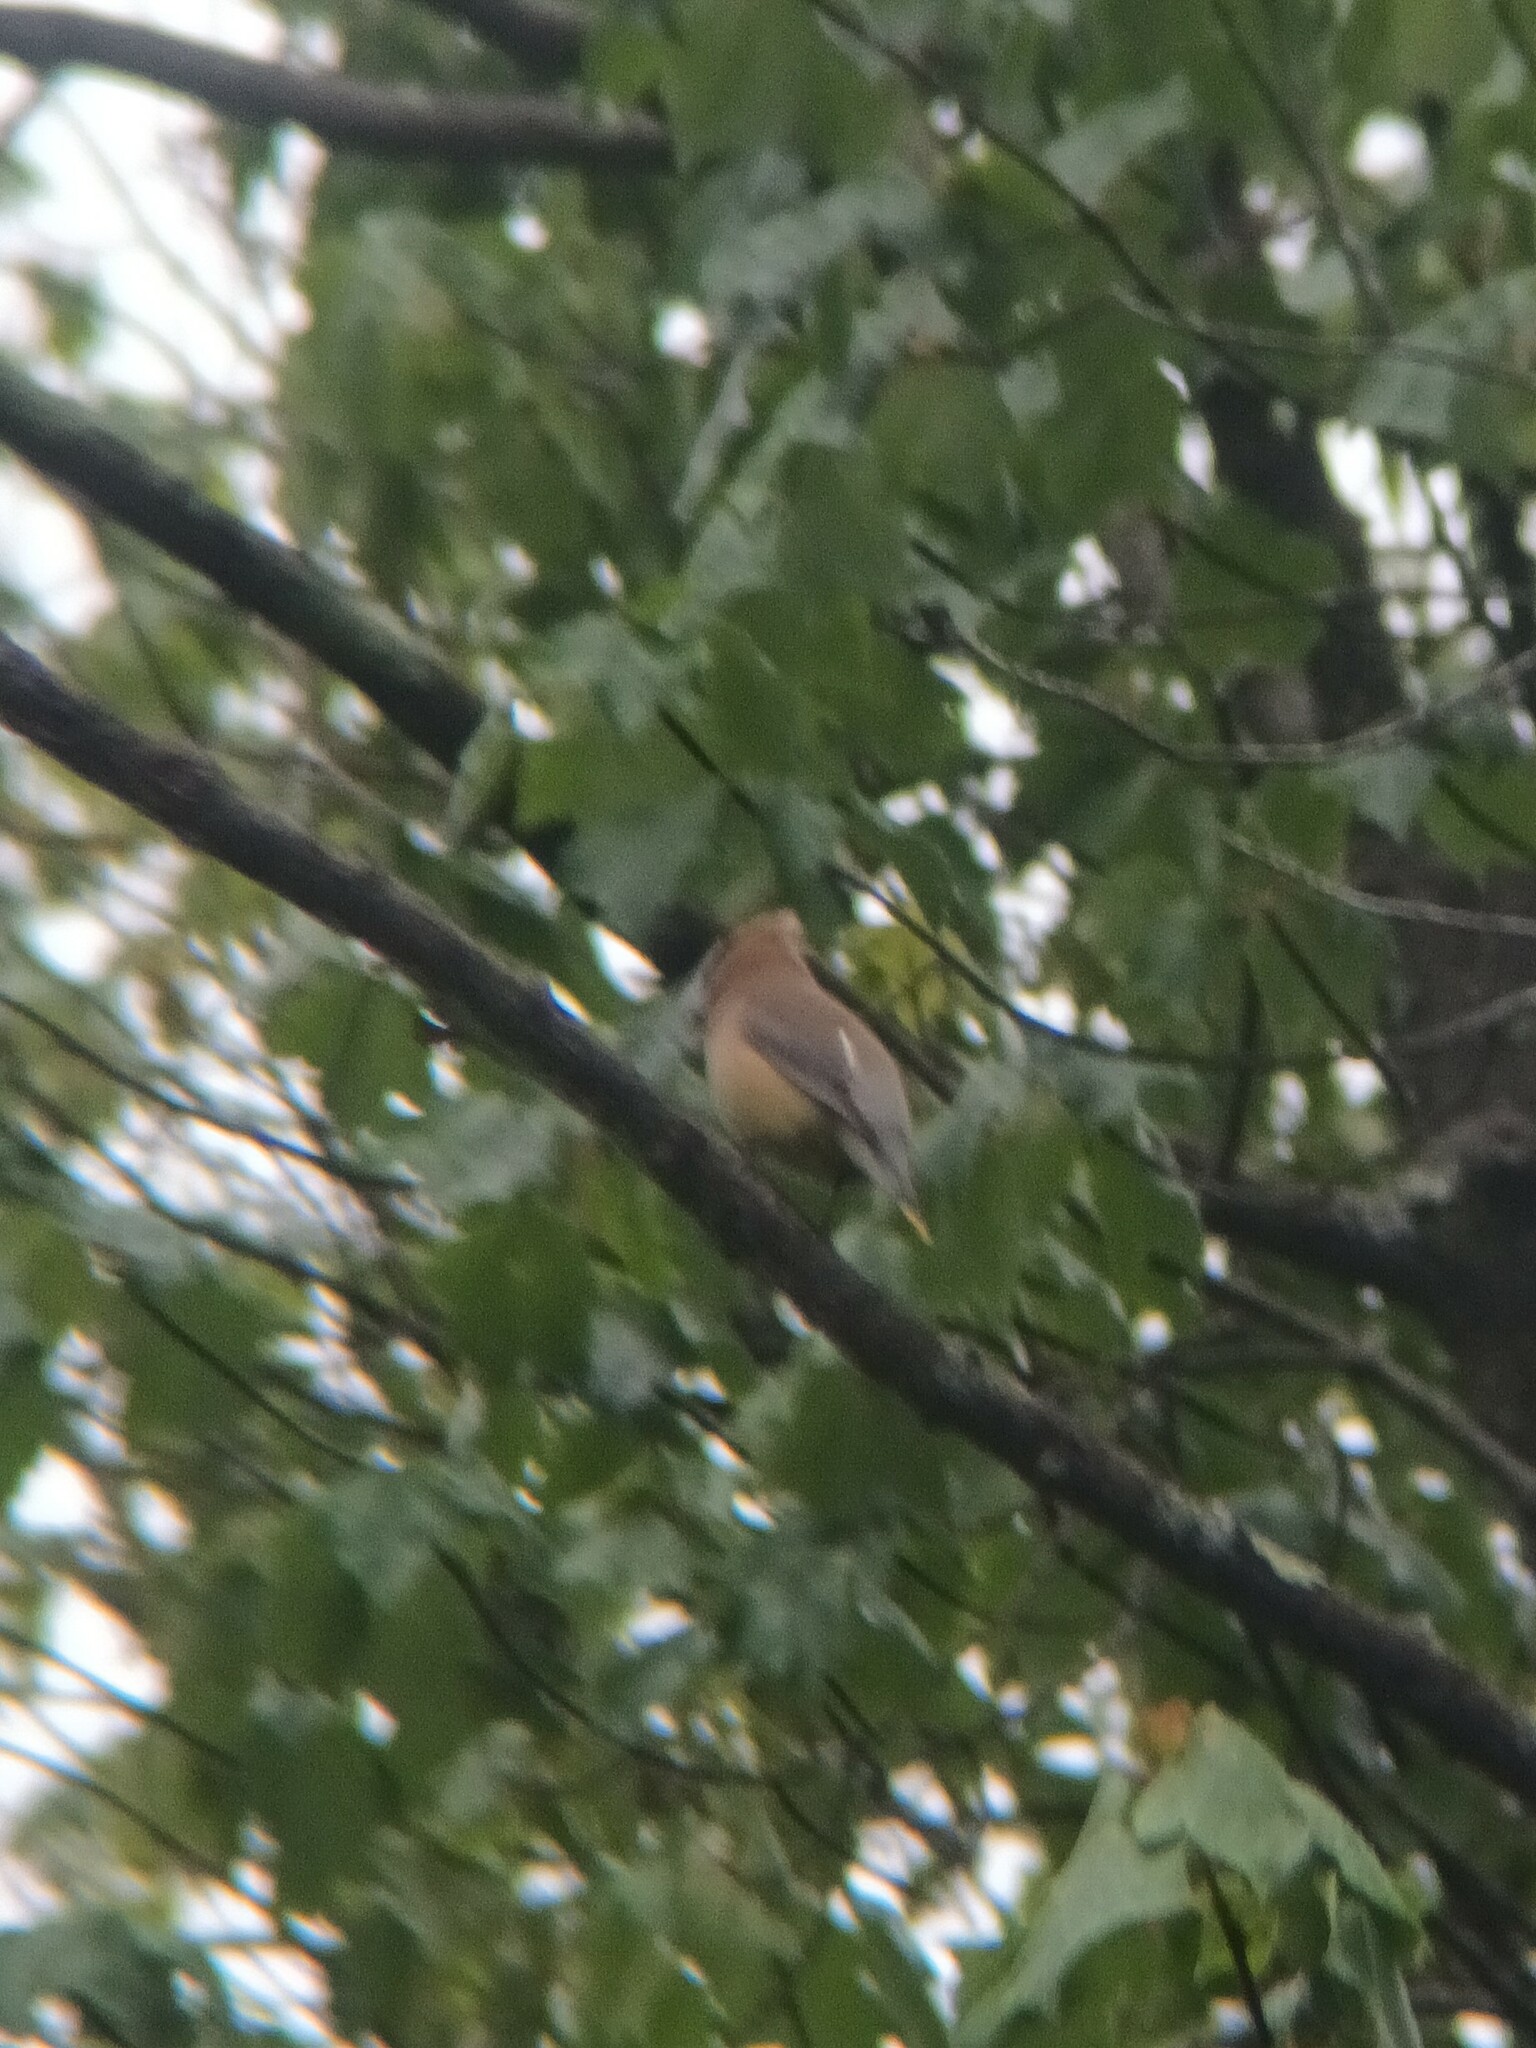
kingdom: Animalia
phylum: Chordata
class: Aves
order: Passeriformes
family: Bombycillidae
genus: Bombycilla
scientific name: Bombycilla cedrorum
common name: Cedar waxwing
